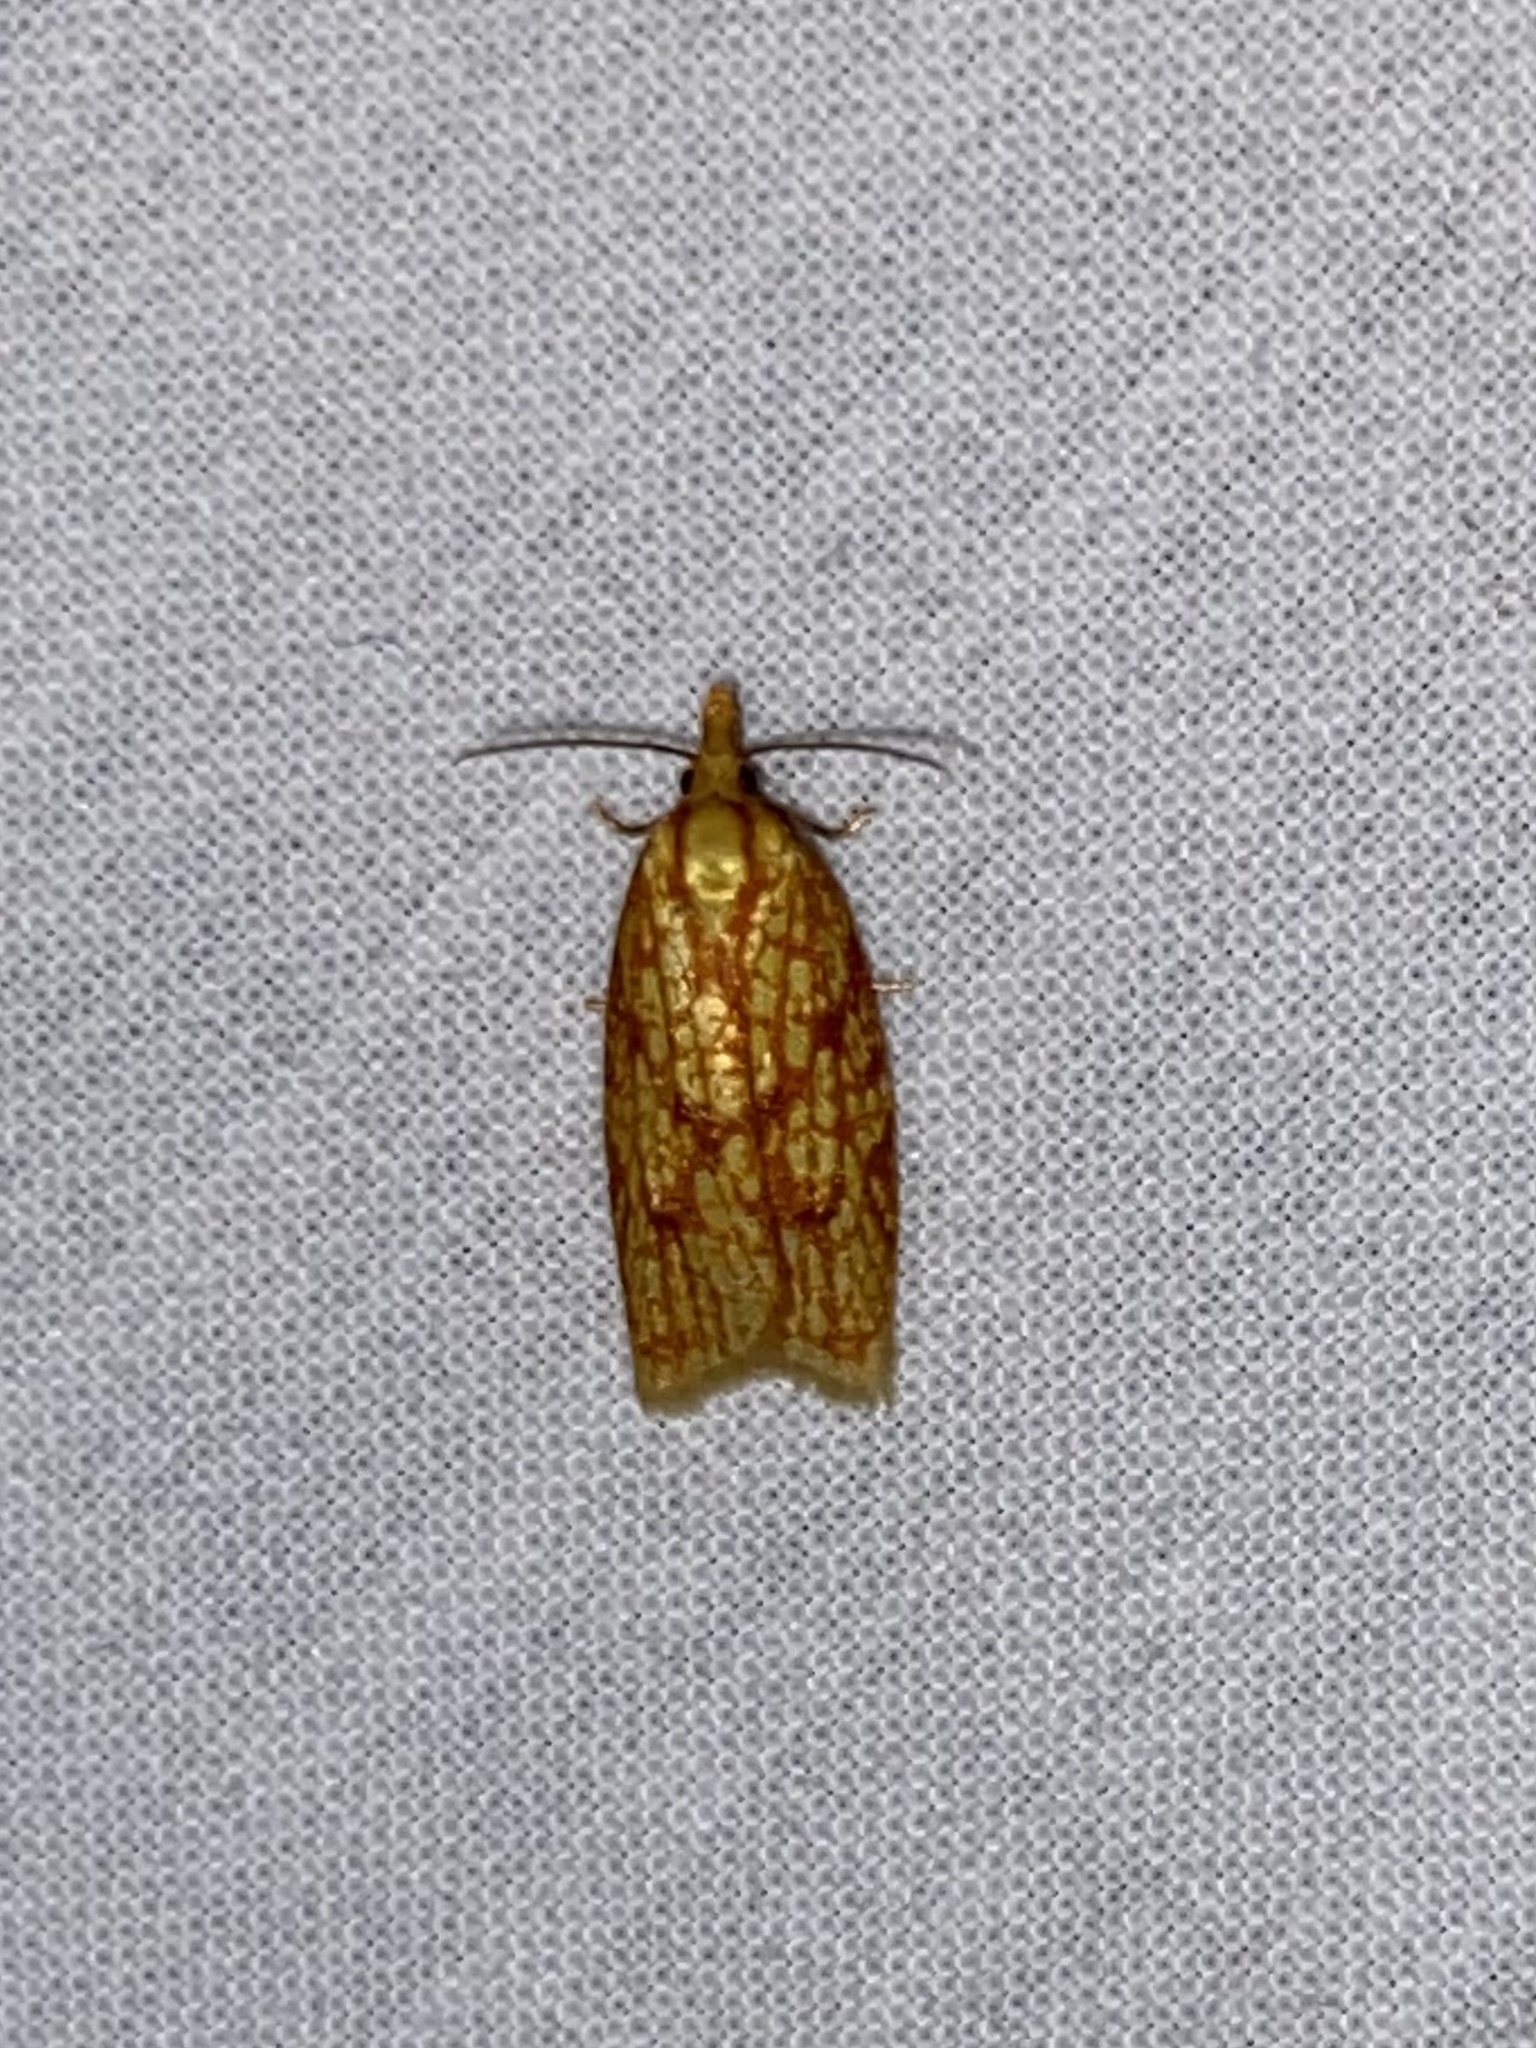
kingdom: Animalia
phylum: Arthropoda
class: Insecta
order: Lepidoptera
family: Tortricidae
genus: Sparganothis
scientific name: Sparganothis sulfureana
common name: Sparganothis fruitworm moth
